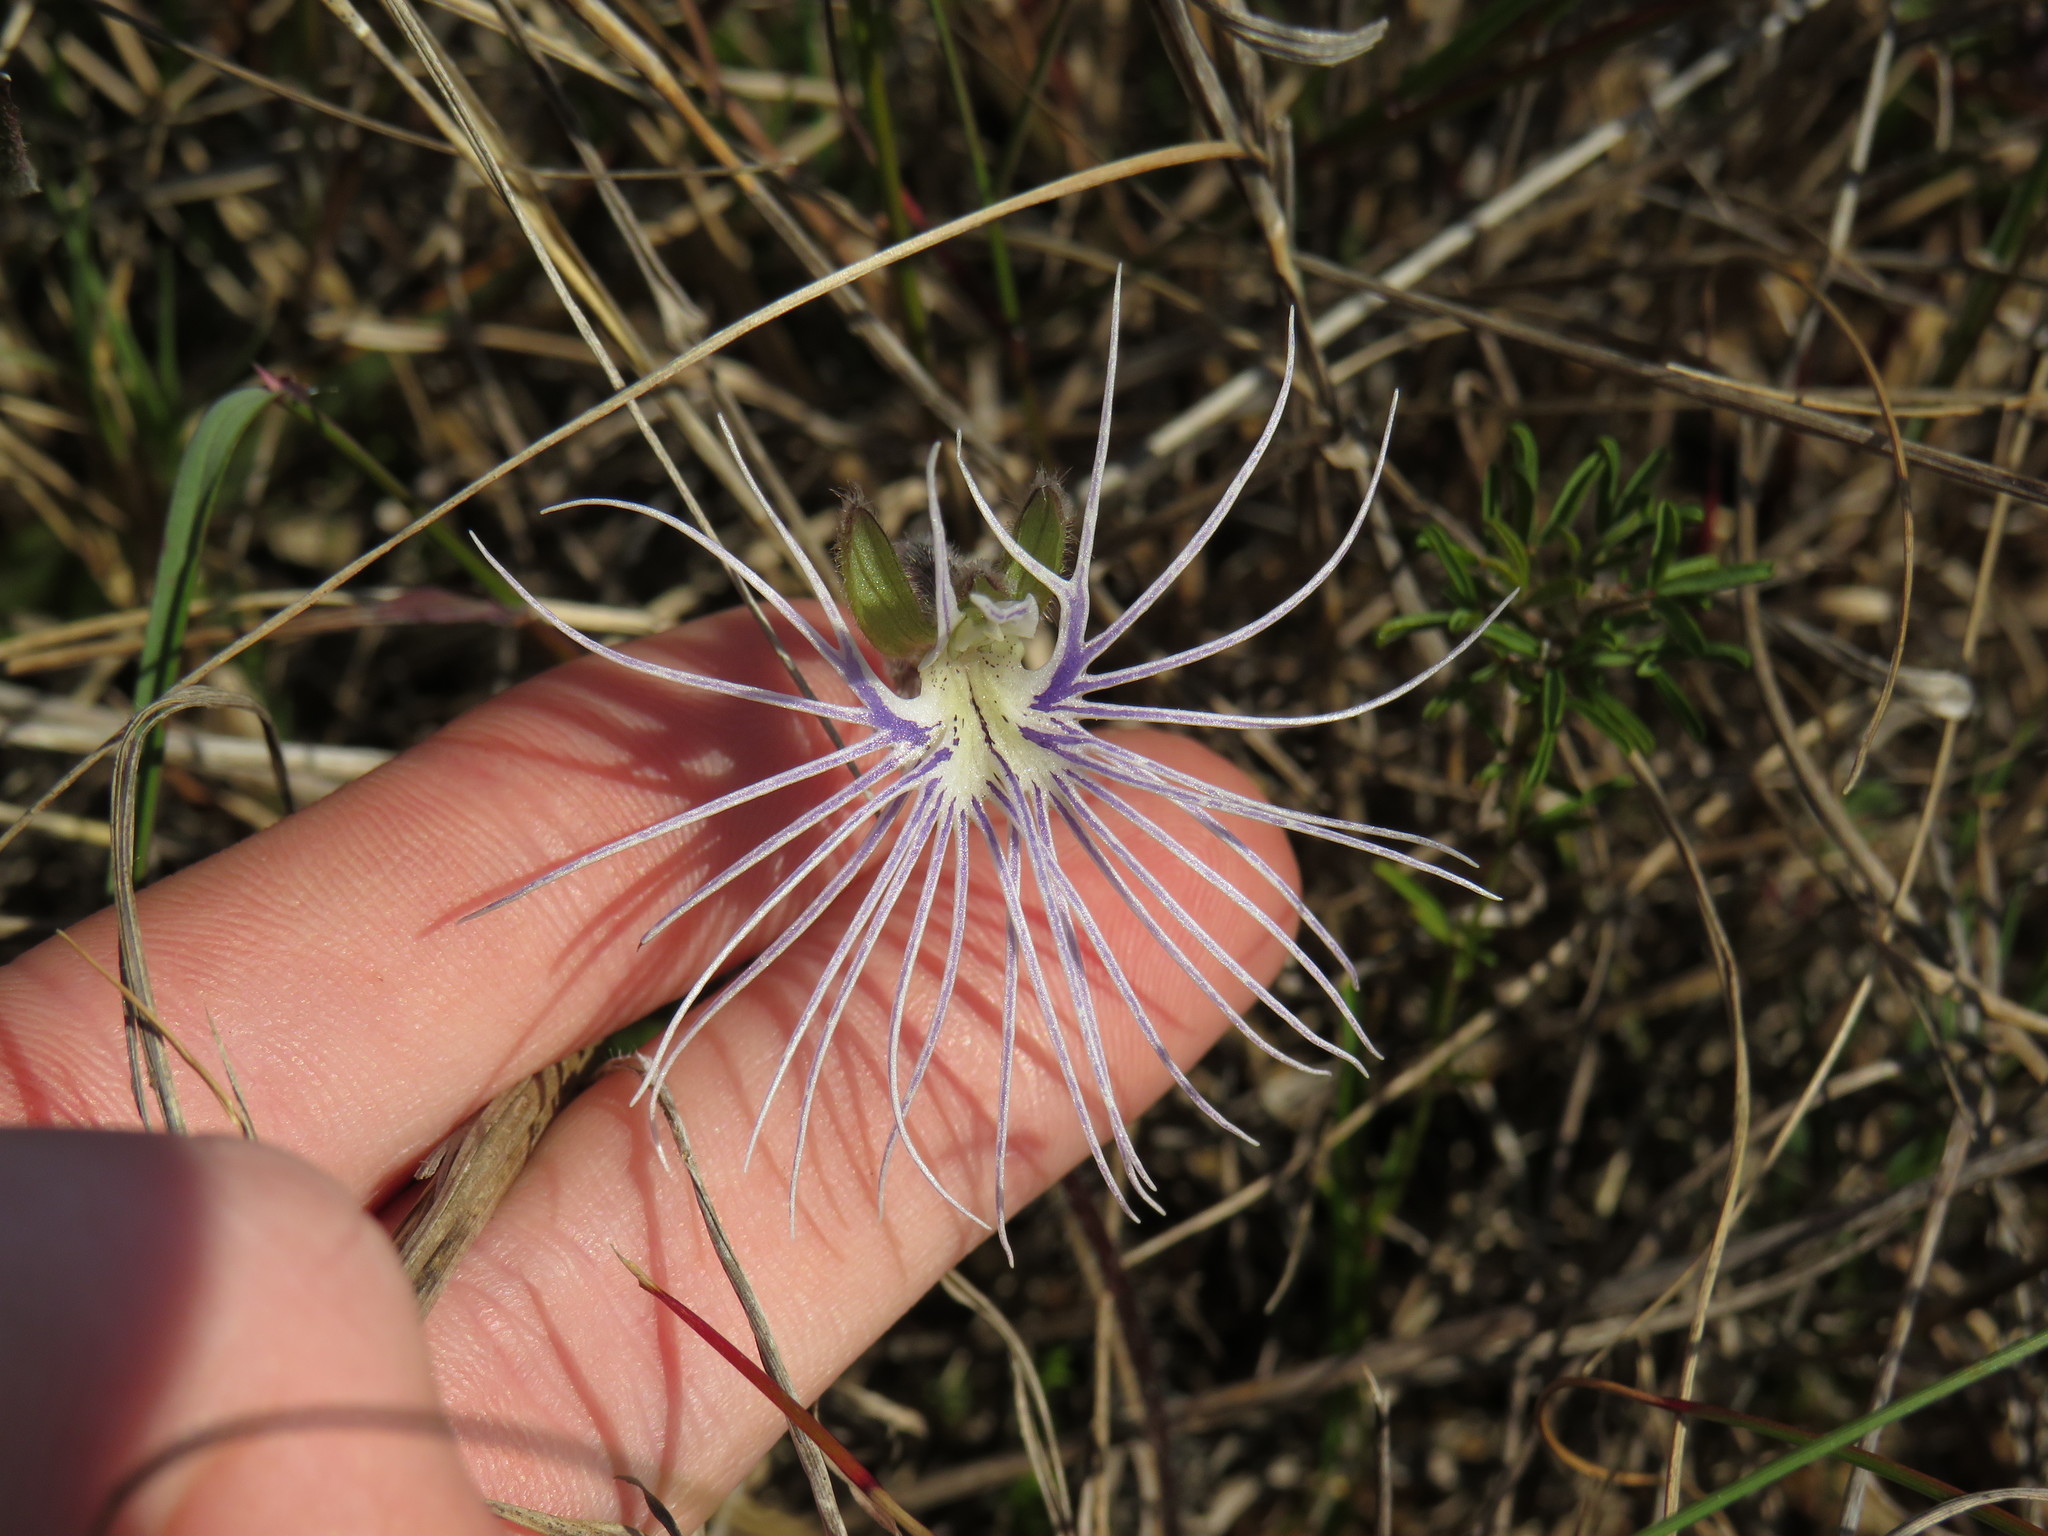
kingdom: Plantae
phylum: Tracheophyta
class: Liliopsida
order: Asparagales
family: Orchidaceae
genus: Holothrix
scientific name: Holothrix burmanniana
